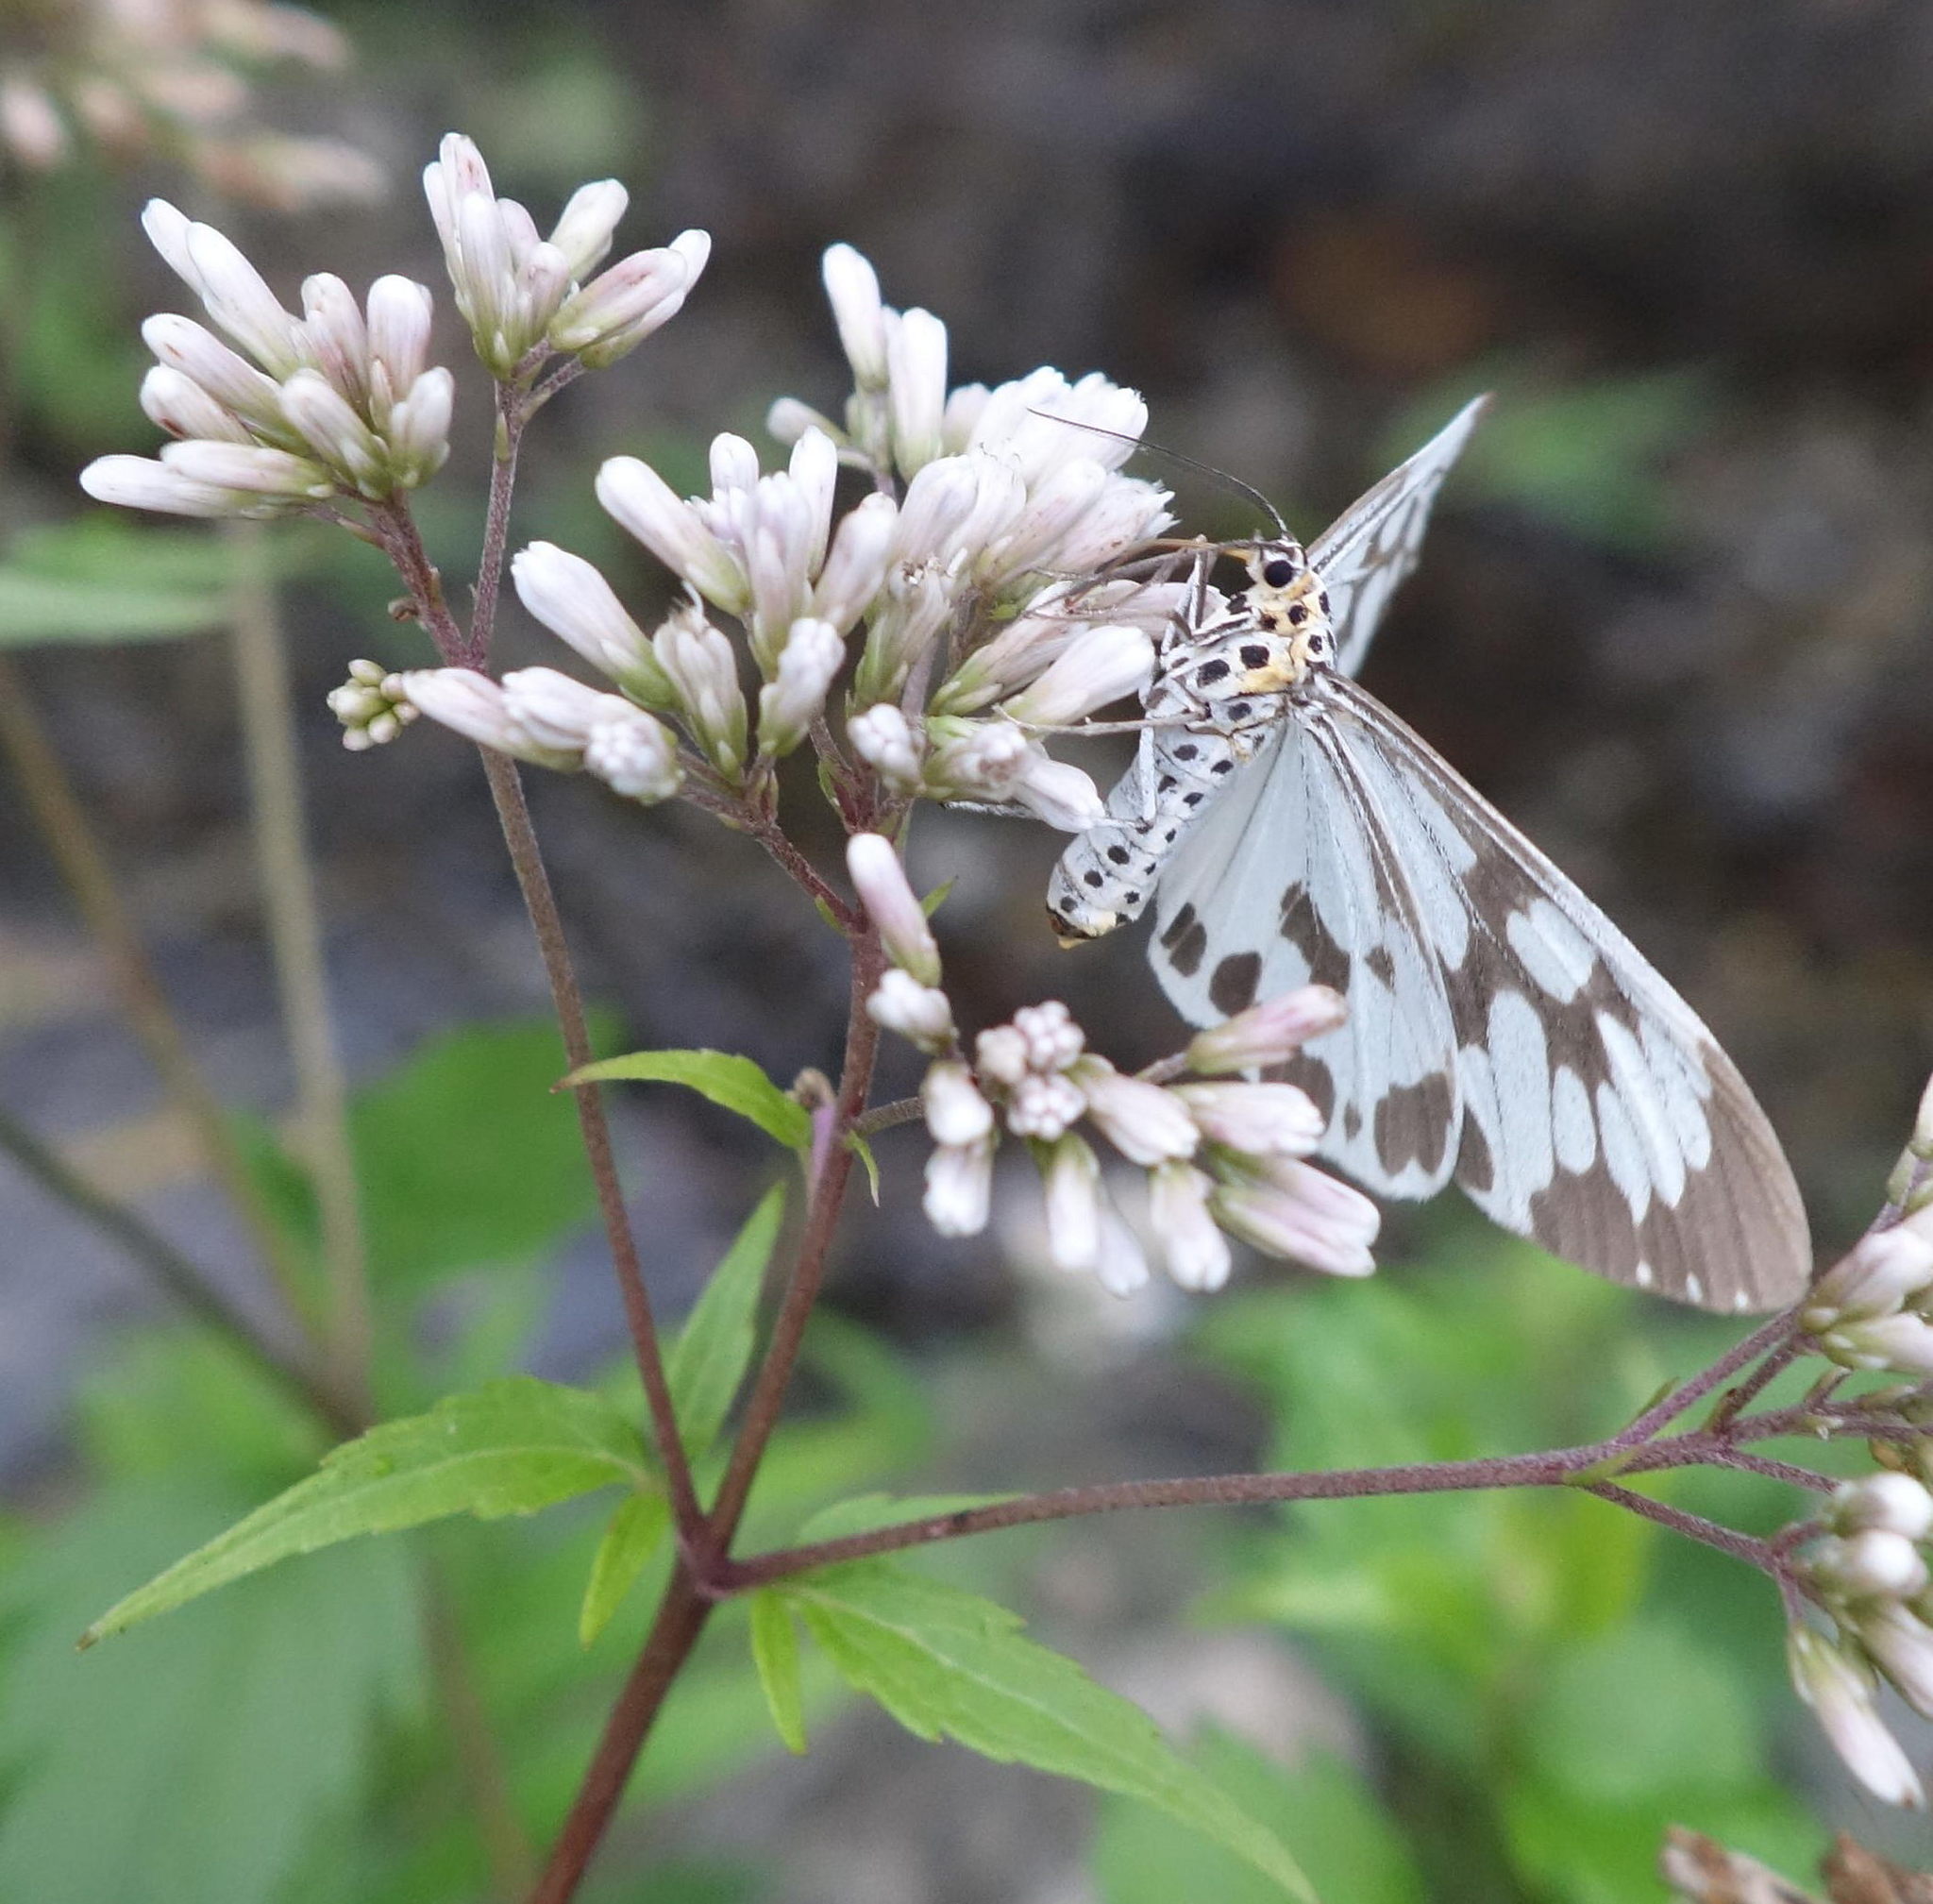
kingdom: Animalia
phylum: Arthropoda
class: Insecta
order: Lepidoptera
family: Erebidae
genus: Nyctemera
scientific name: Nyctemera adversata
